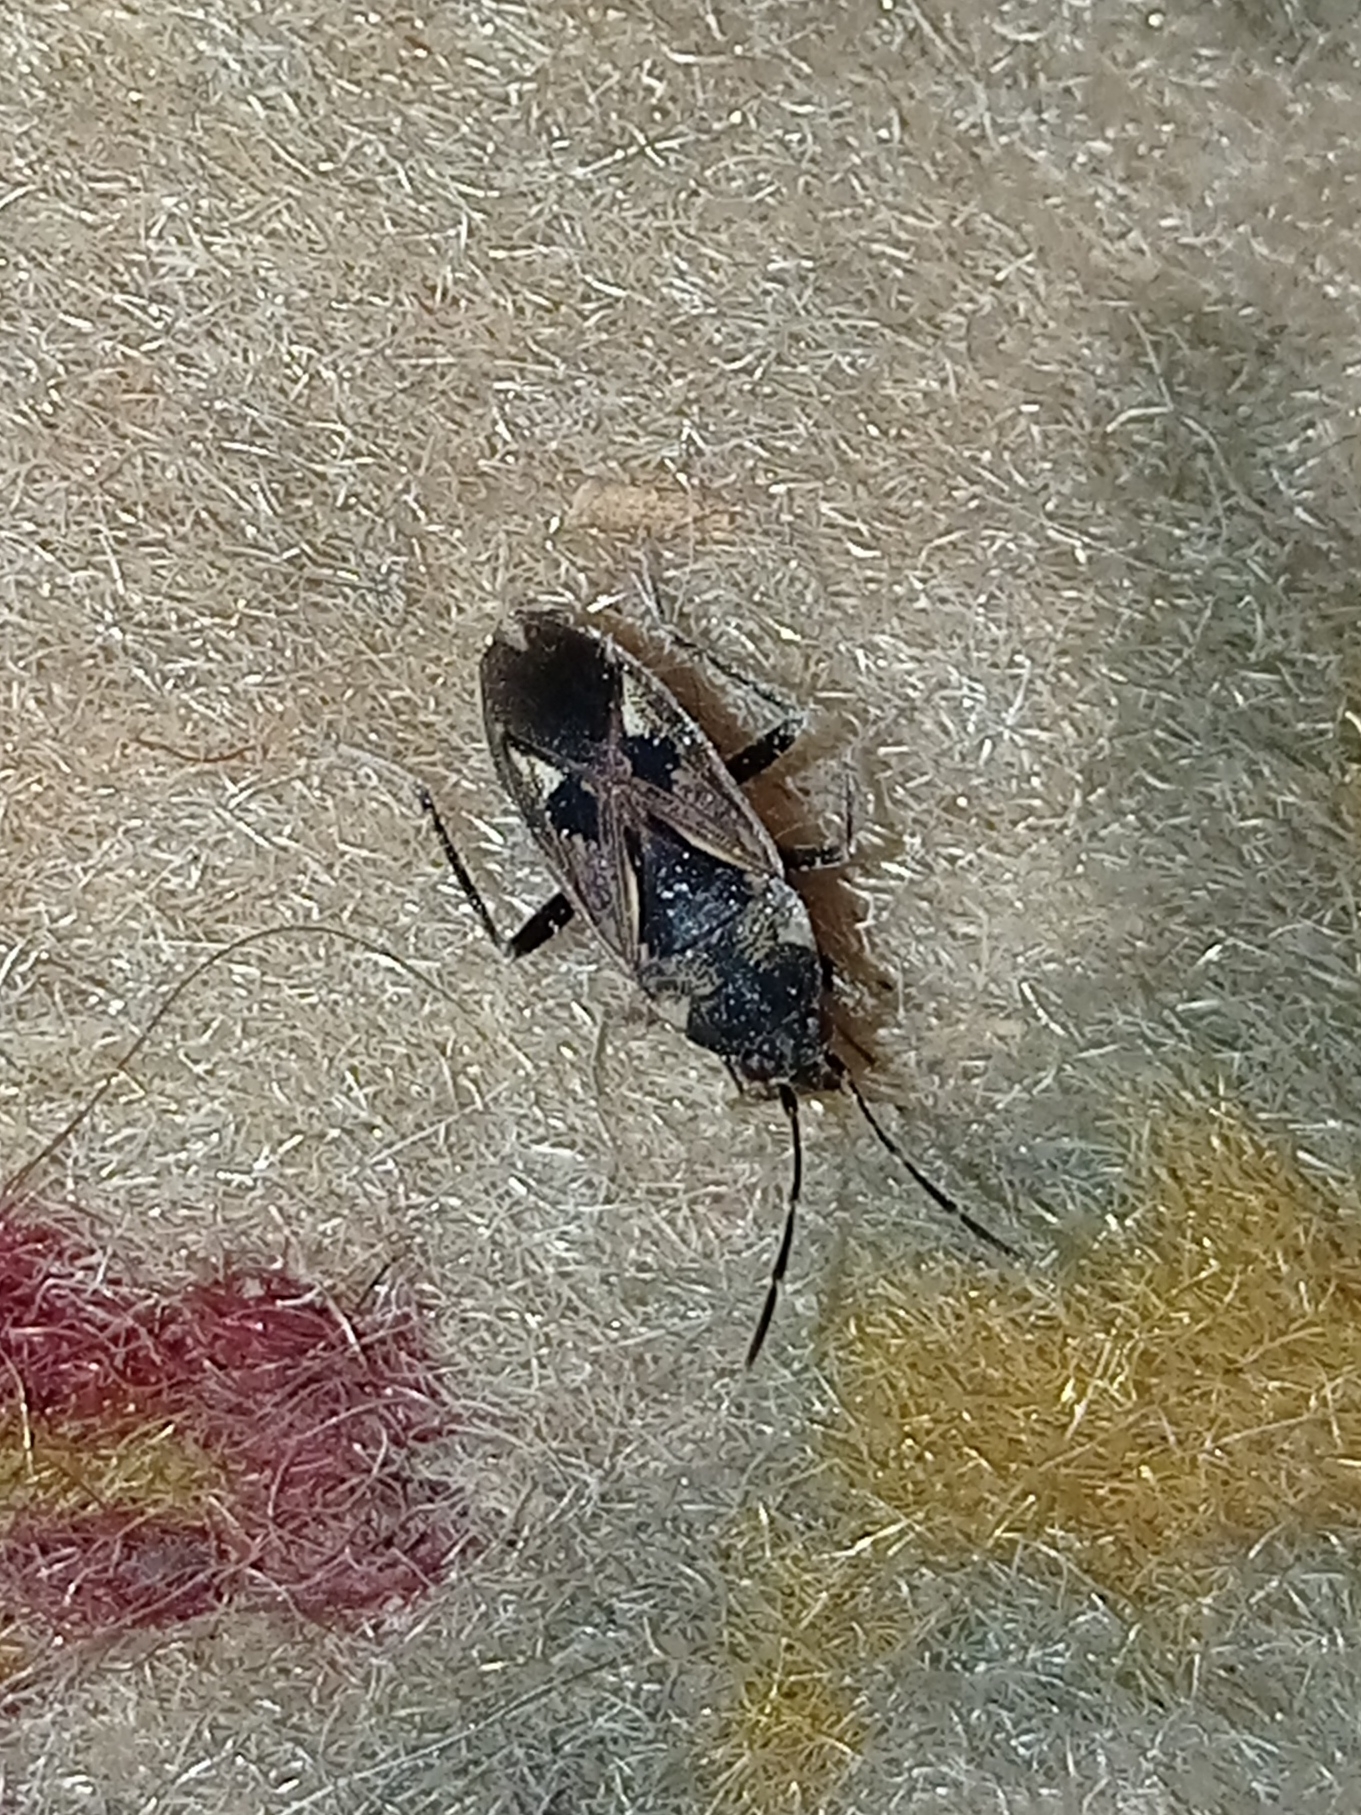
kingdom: Animalia
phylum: Arthropoda
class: Insecta
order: Hemiptera
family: Rhyparochromidae
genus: Rhyparochromus
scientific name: Rhyparochromus vulgaris
